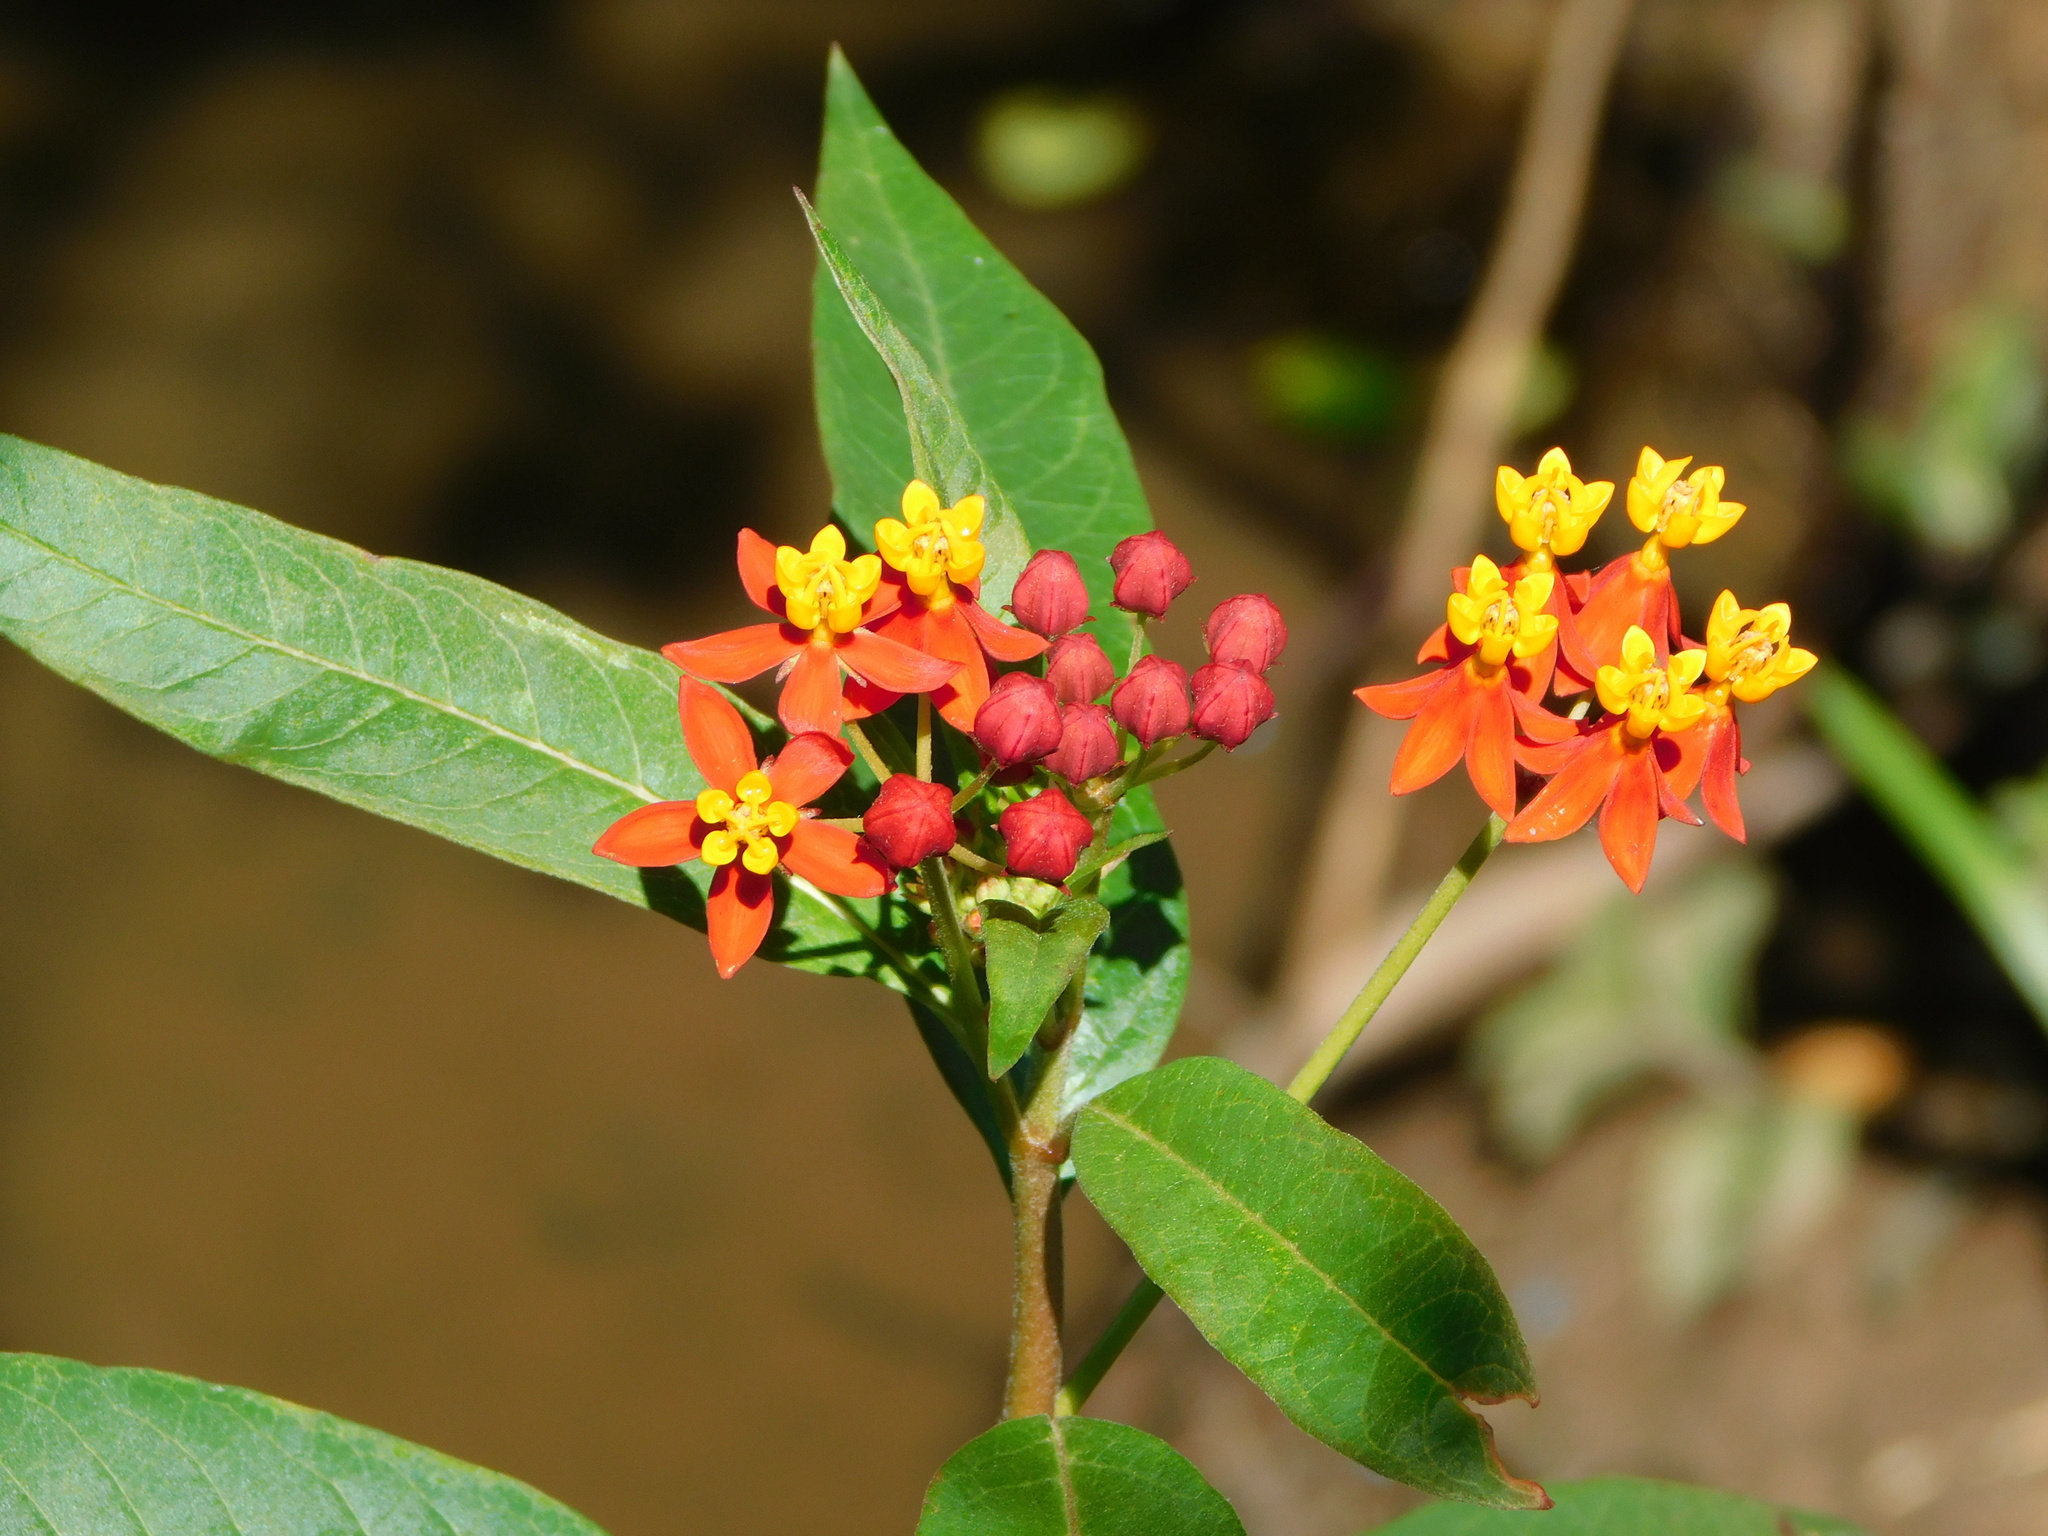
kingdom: Plantae
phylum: Tracheophyta
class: Magnoliopsida
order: Gentianales
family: Apocynaceae
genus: Asclepias
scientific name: Asclepias curassavica
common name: Bloodflower
